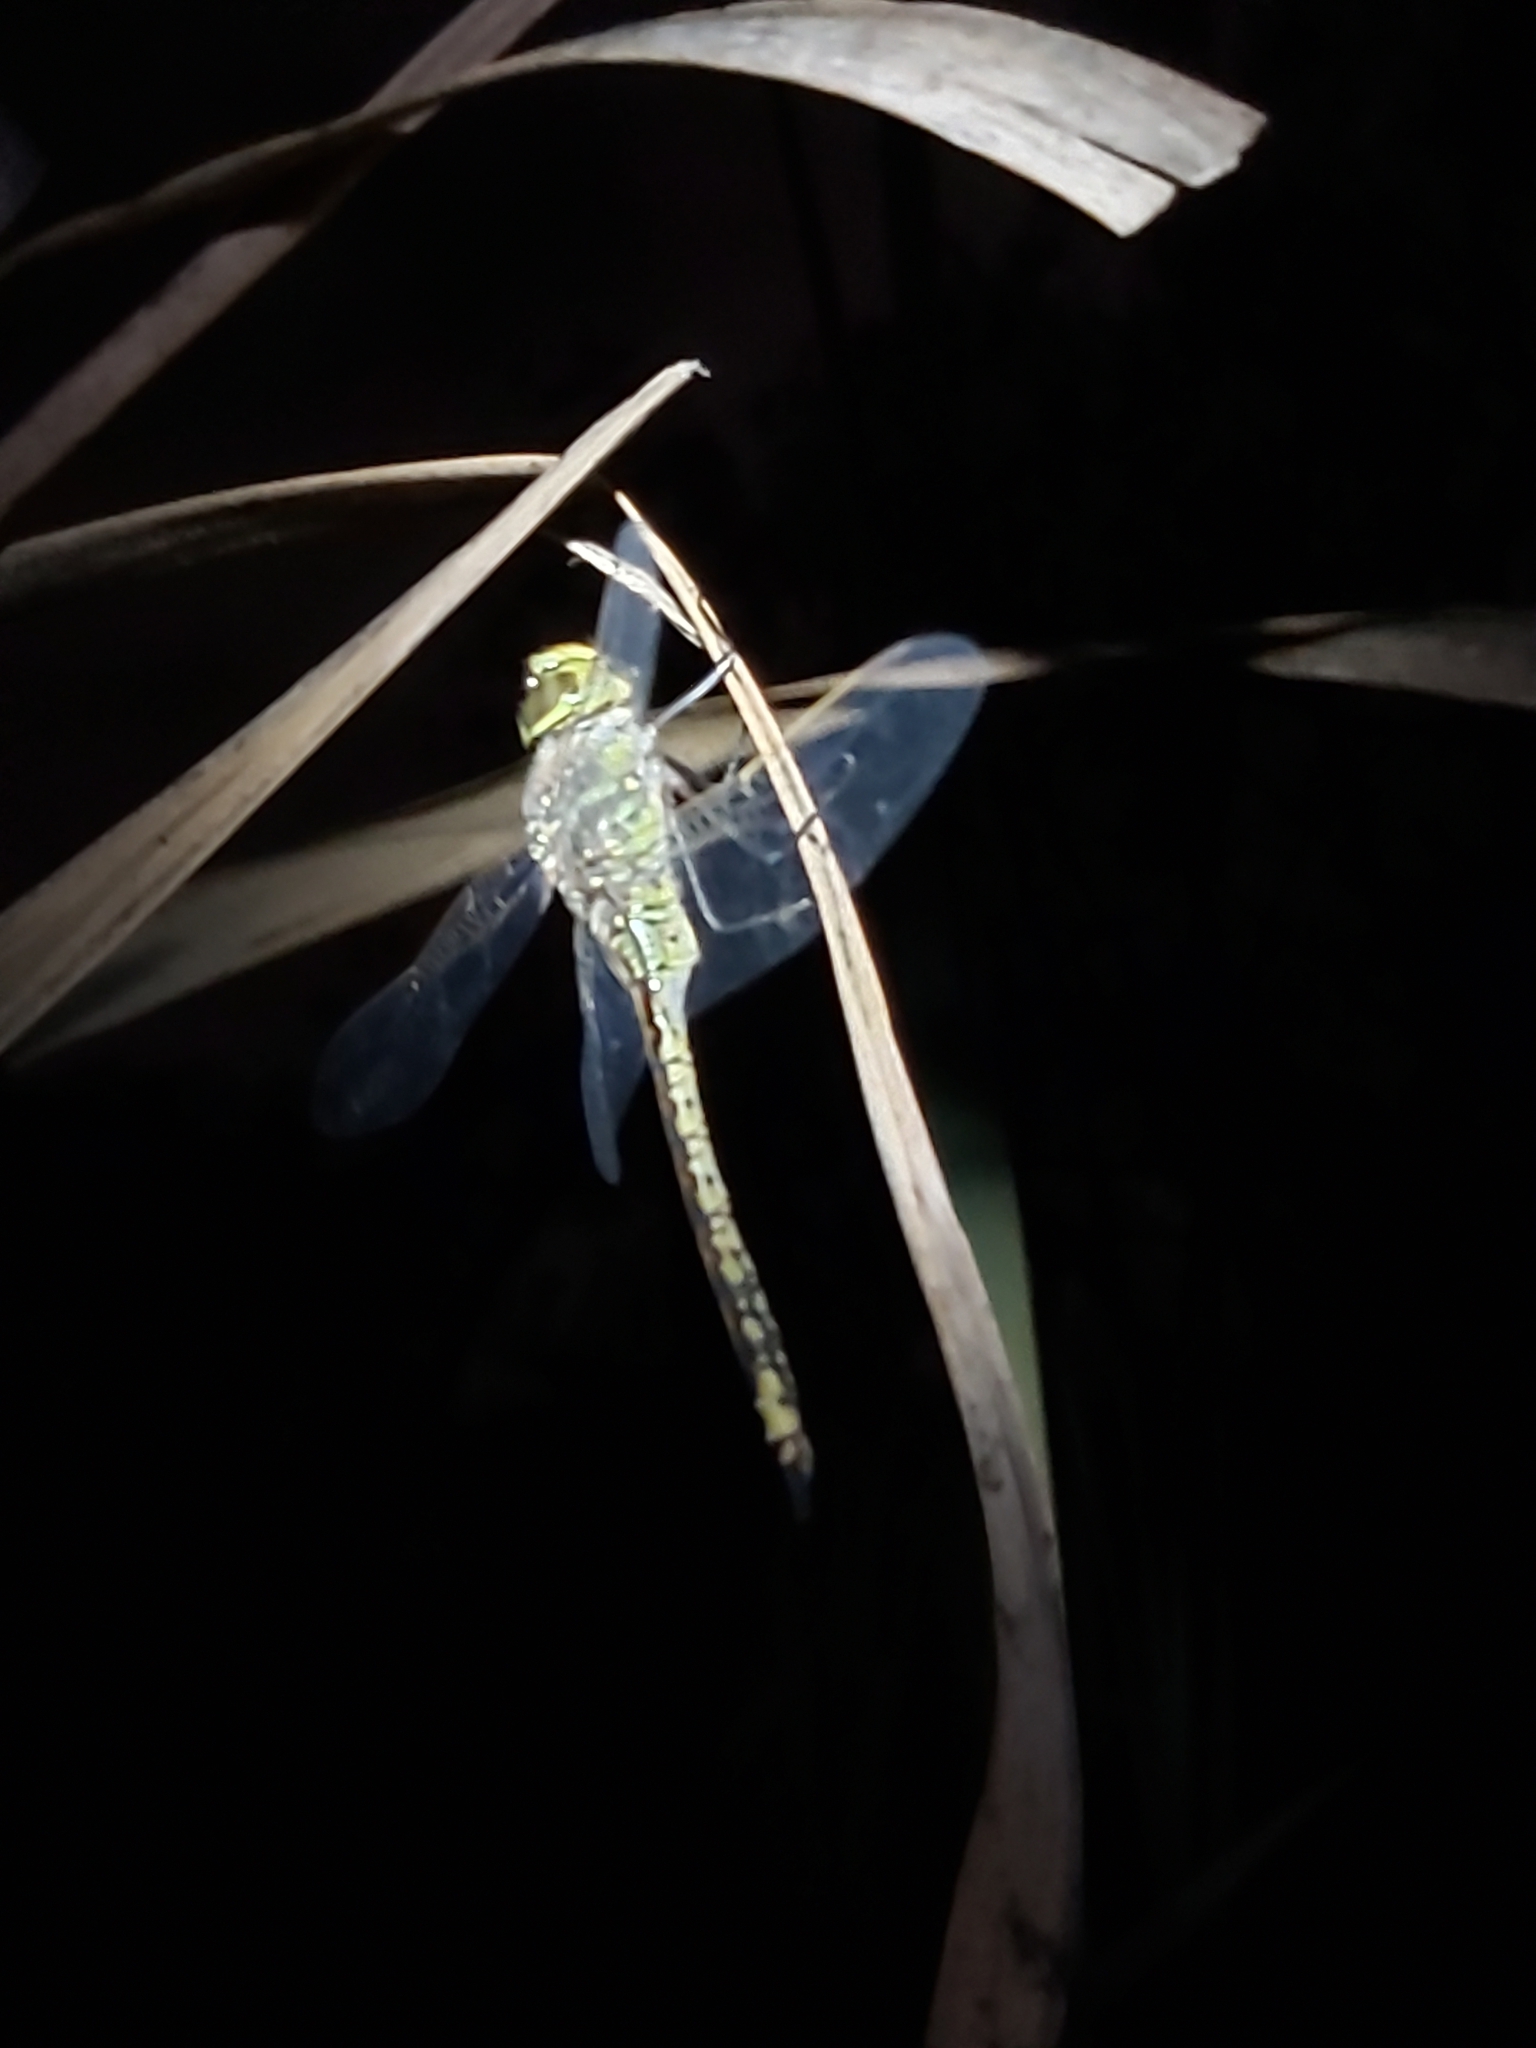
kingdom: Animalia
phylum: Arthropoda
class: Insecta
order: Odonata
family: Aeshnidae
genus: Anax
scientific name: Anax papuensis
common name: Australian emperor
